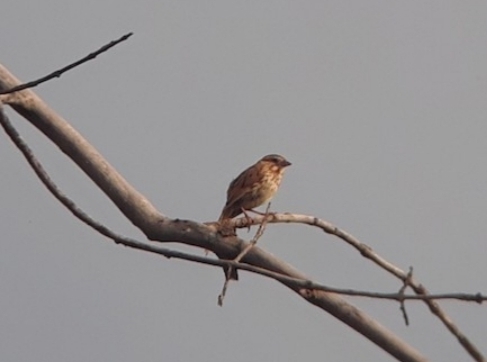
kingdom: Animalia
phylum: Chordata
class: Aves
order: Passeriformes
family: Passerellidae
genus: Melospiza
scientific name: Melospiza melodia
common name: Song sparrow
